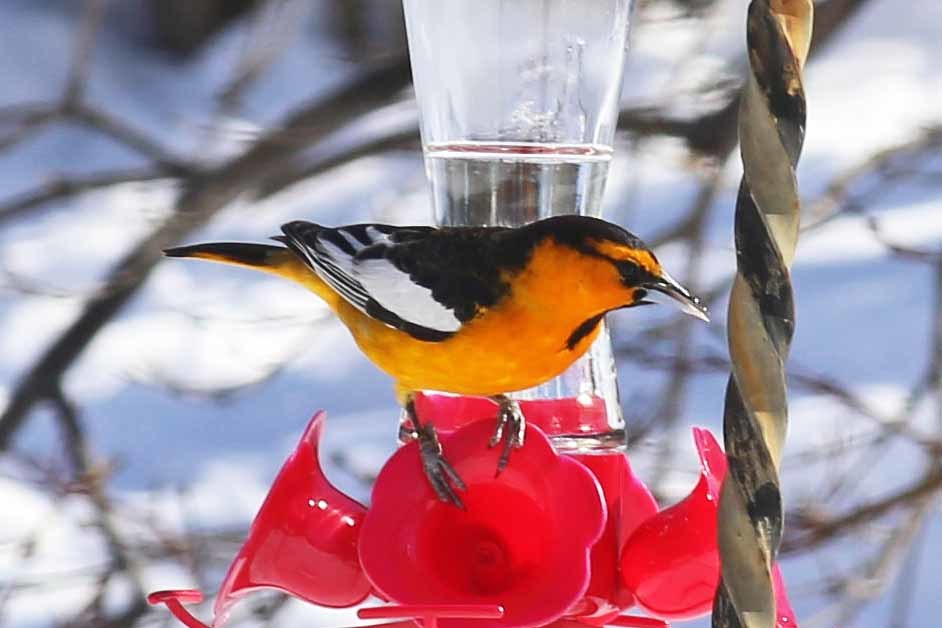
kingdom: Animalia
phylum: Chordata
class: Aves
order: Passeriformes
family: Icteridae
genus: Icterus
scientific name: Icterus bullockii
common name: Bullock's oriole
